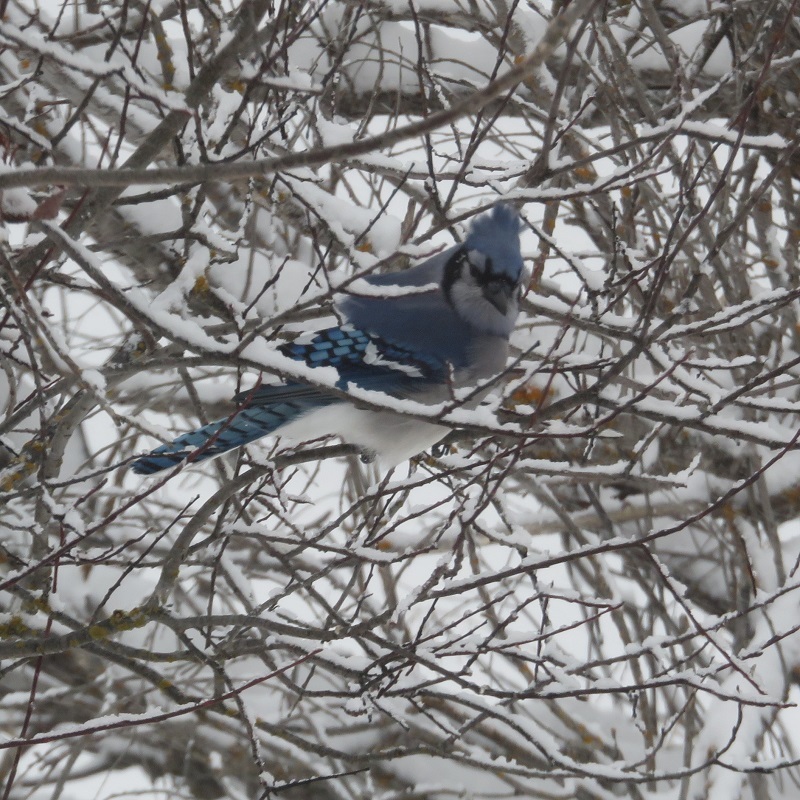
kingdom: Animalia
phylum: Chordata
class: Aves
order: Passeriformes
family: Corvidae
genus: Cyanocitta
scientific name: Cyanocitta cristata
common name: Blue jay
